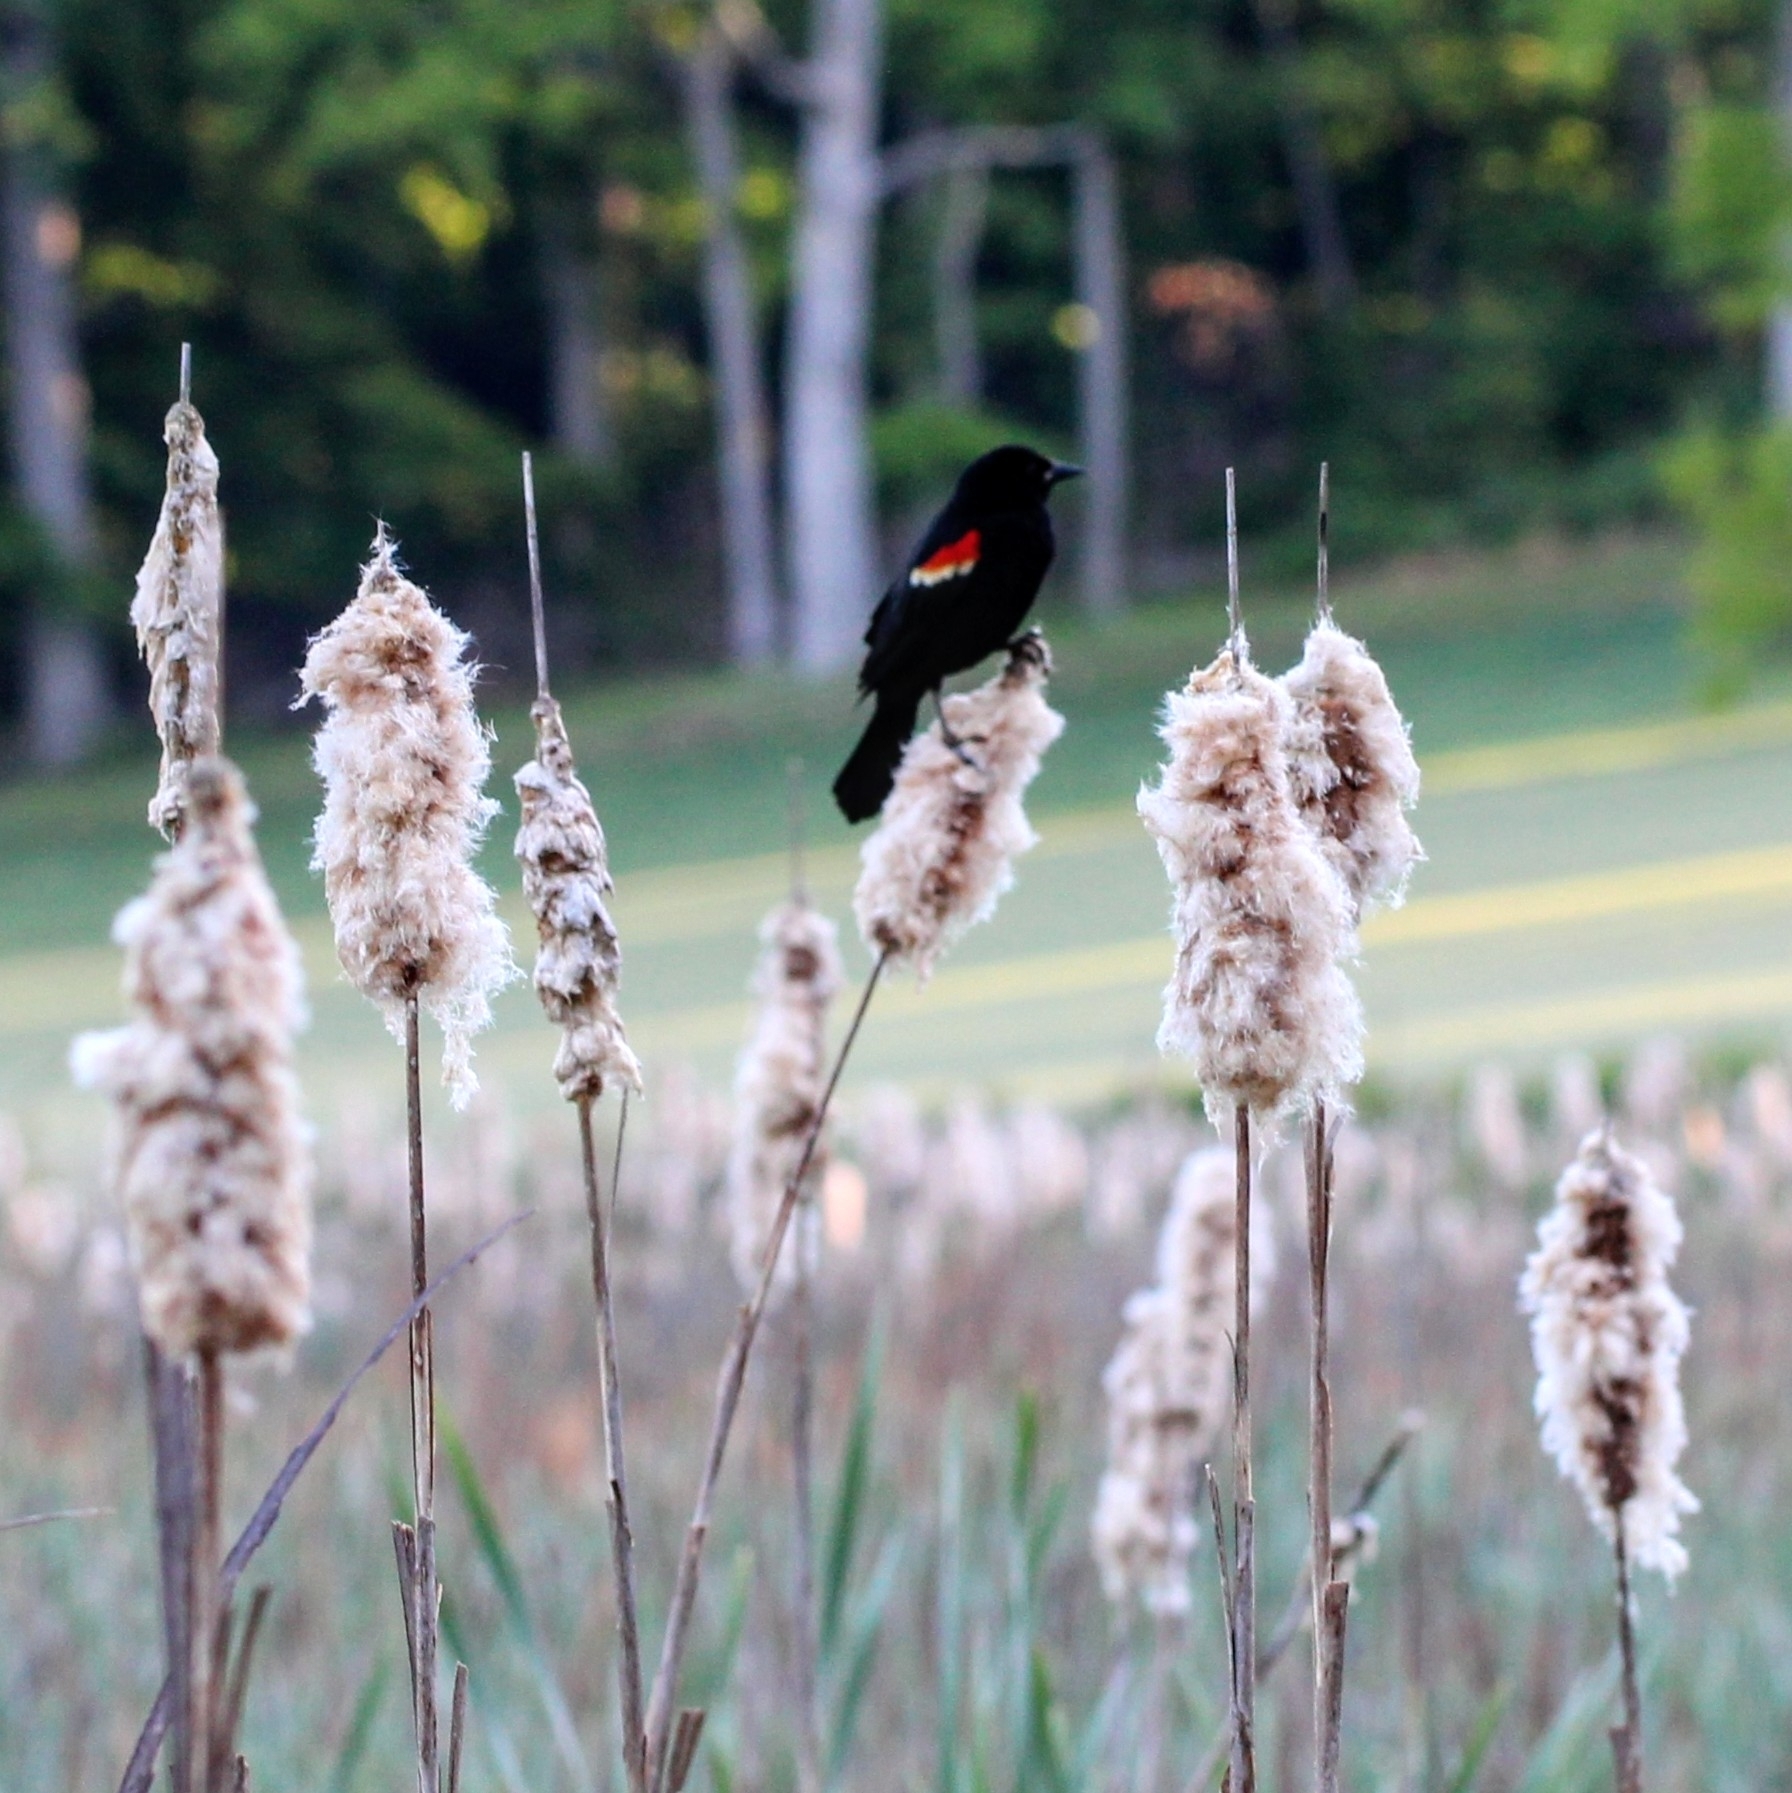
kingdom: Animalia
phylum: Chordata
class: Aves
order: Passeriformes
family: Icteridae
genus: Agelaius
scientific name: Agelaius phoeniceus
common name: Red-winged blackbird
